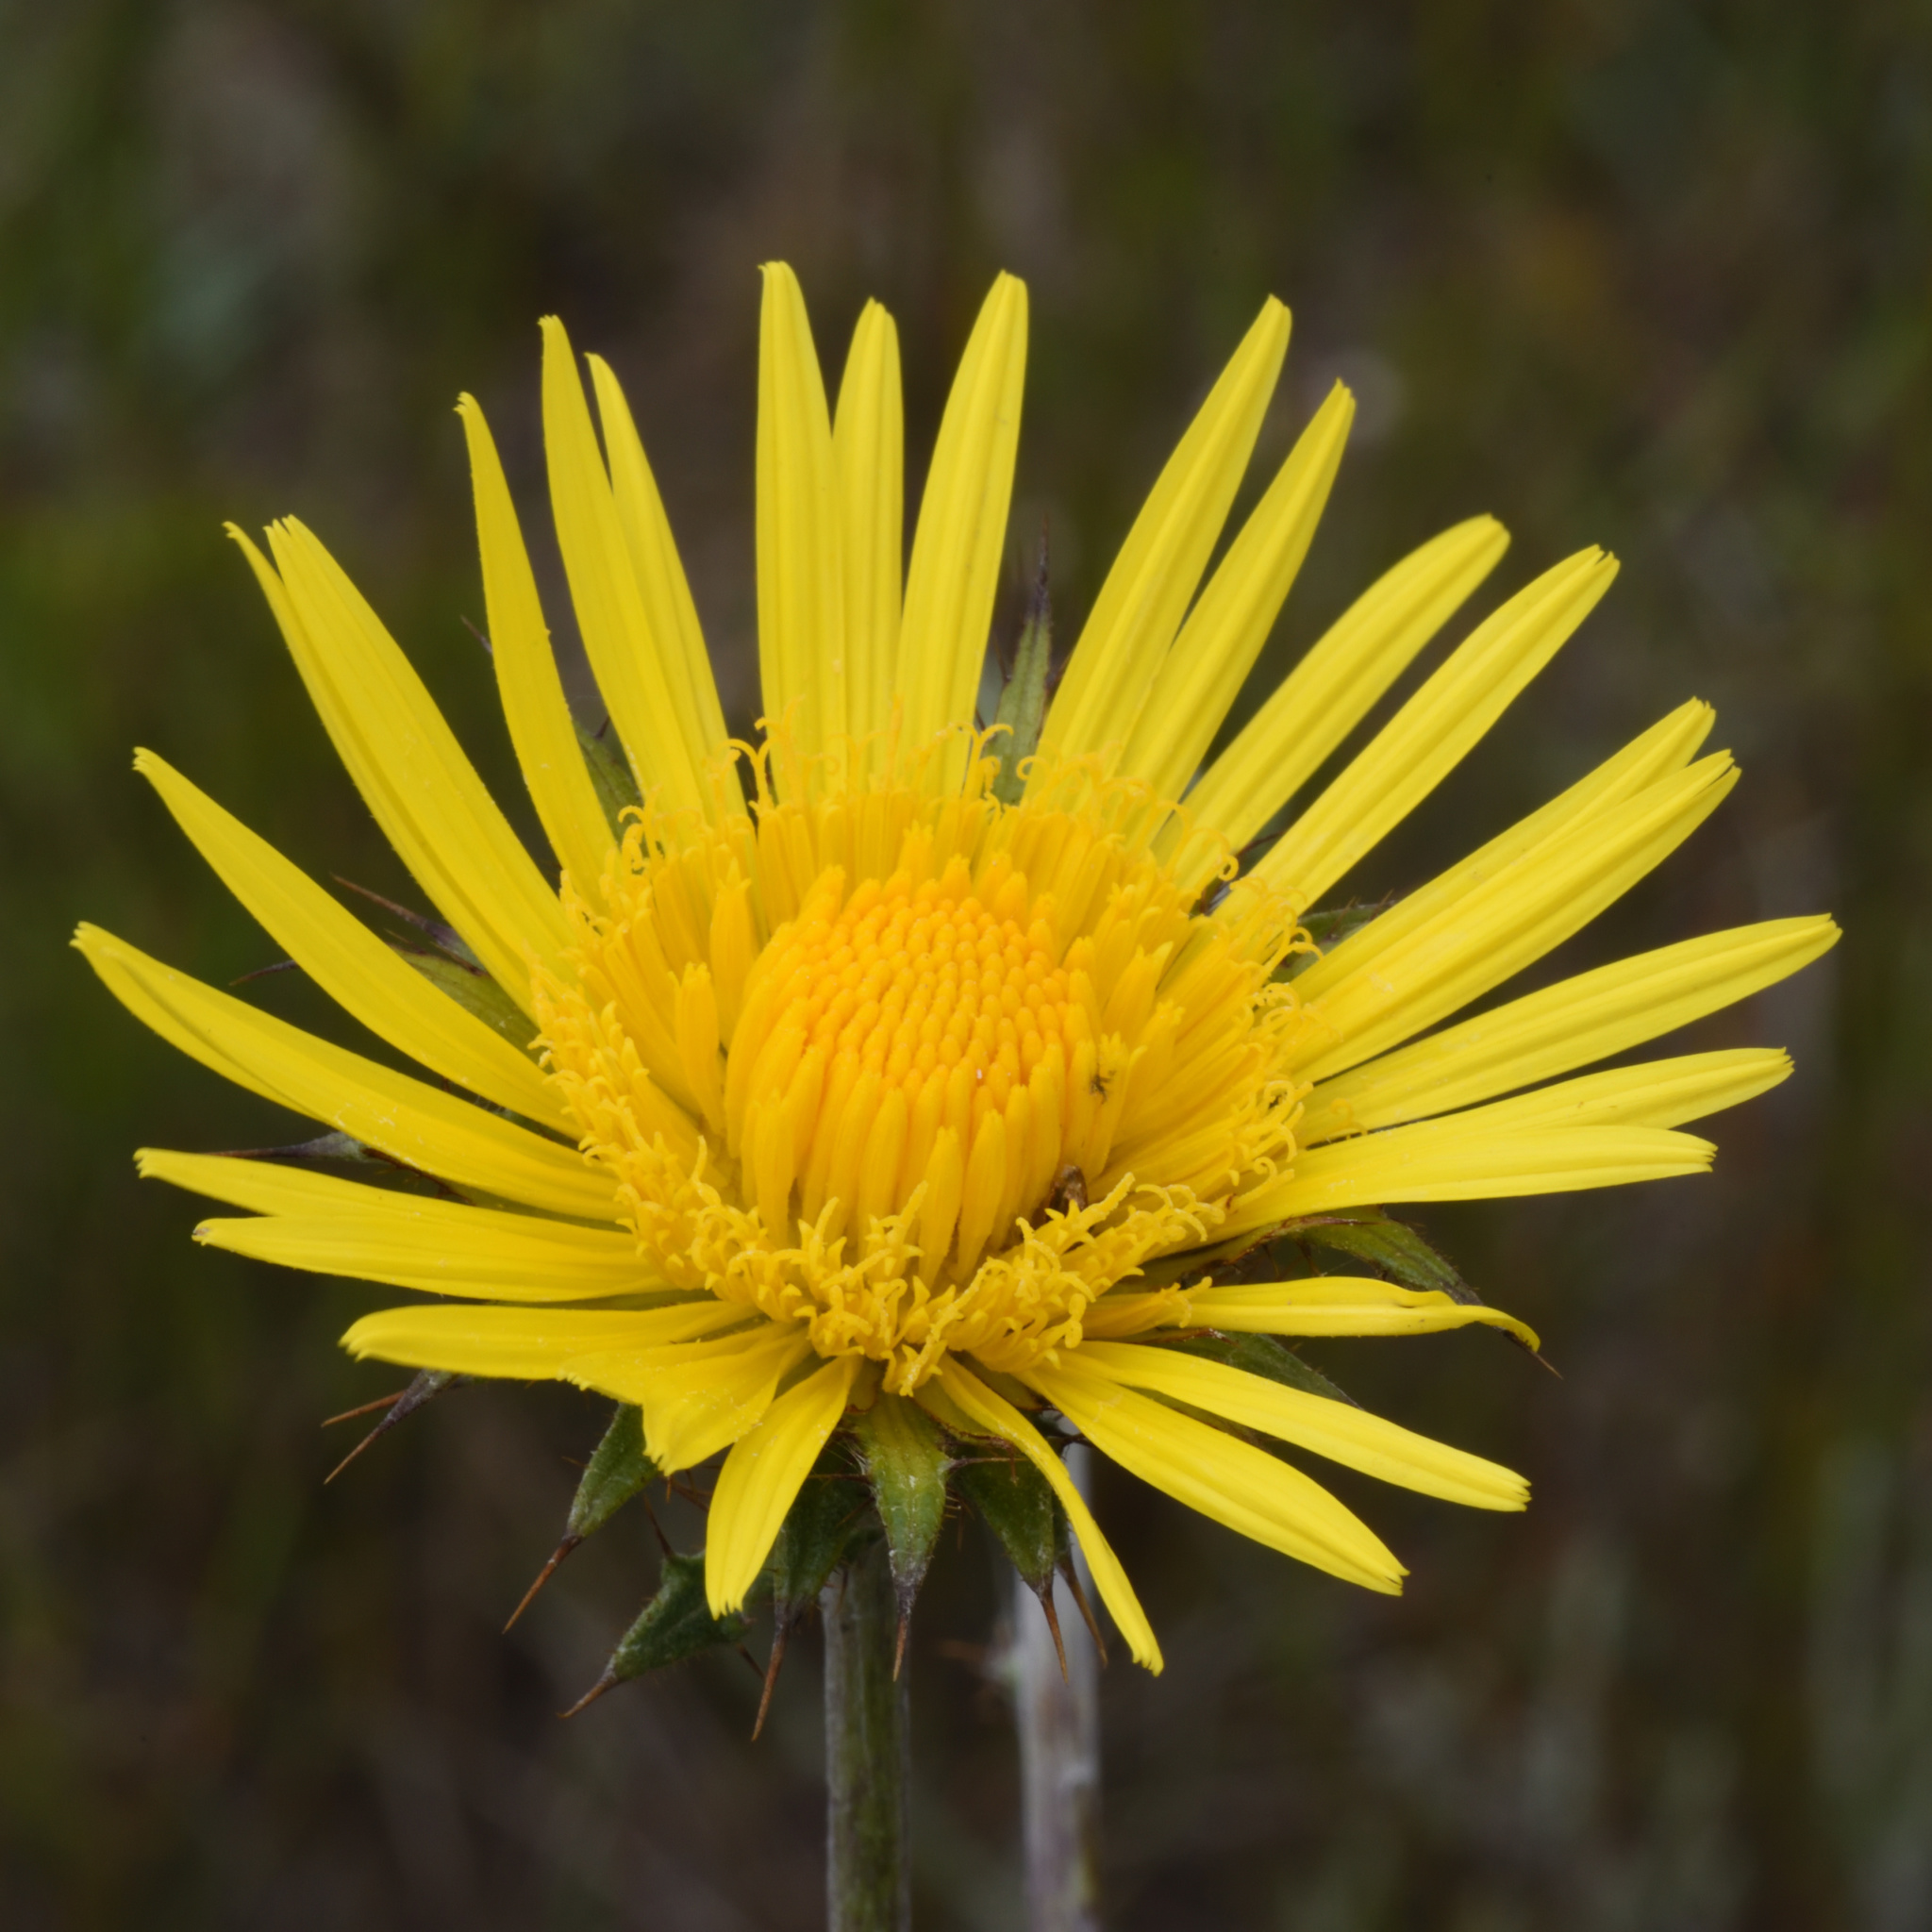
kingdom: Plantae
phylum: Tracheophyta
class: Magnoliopsida
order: Asterales
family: Asteraceae
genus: Berkheya
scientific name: Berkheya decurrens
